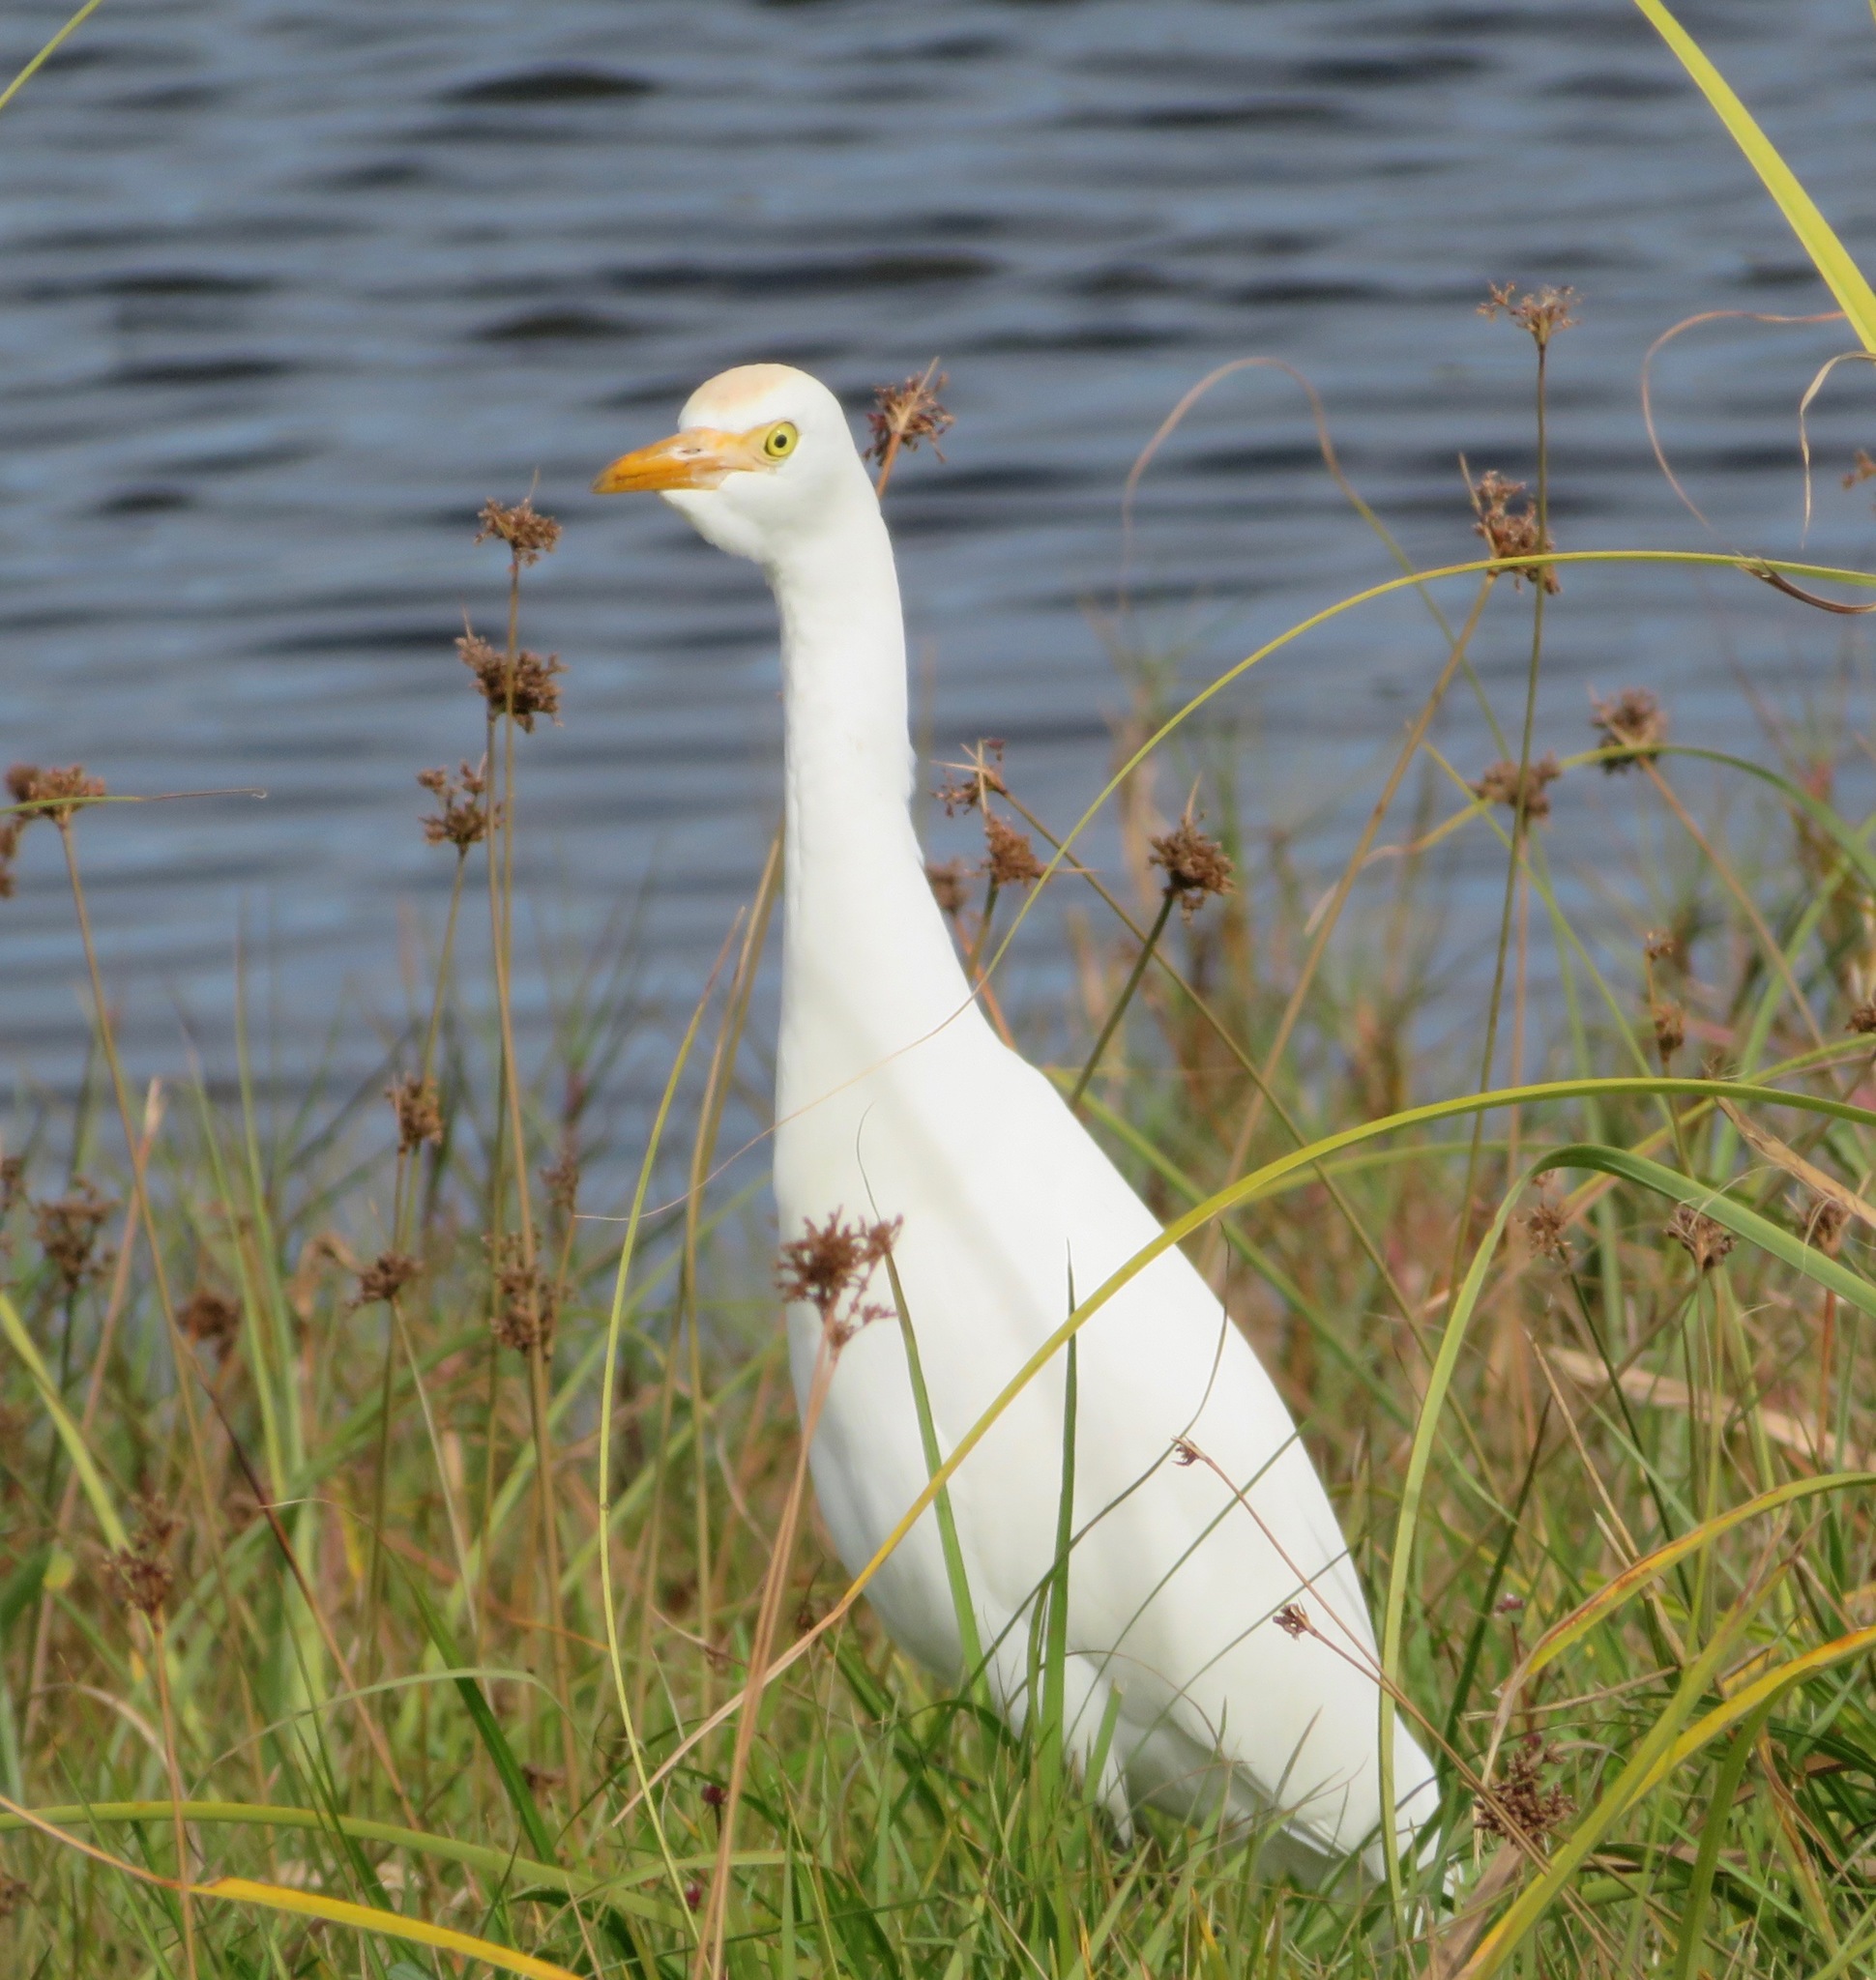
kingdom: Animalia
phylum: Chordata
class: Aves
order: Pelecaniformes
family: Ardeidae
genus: Bubulcus
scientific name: Bubulcus ibis
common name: Cattle egret
